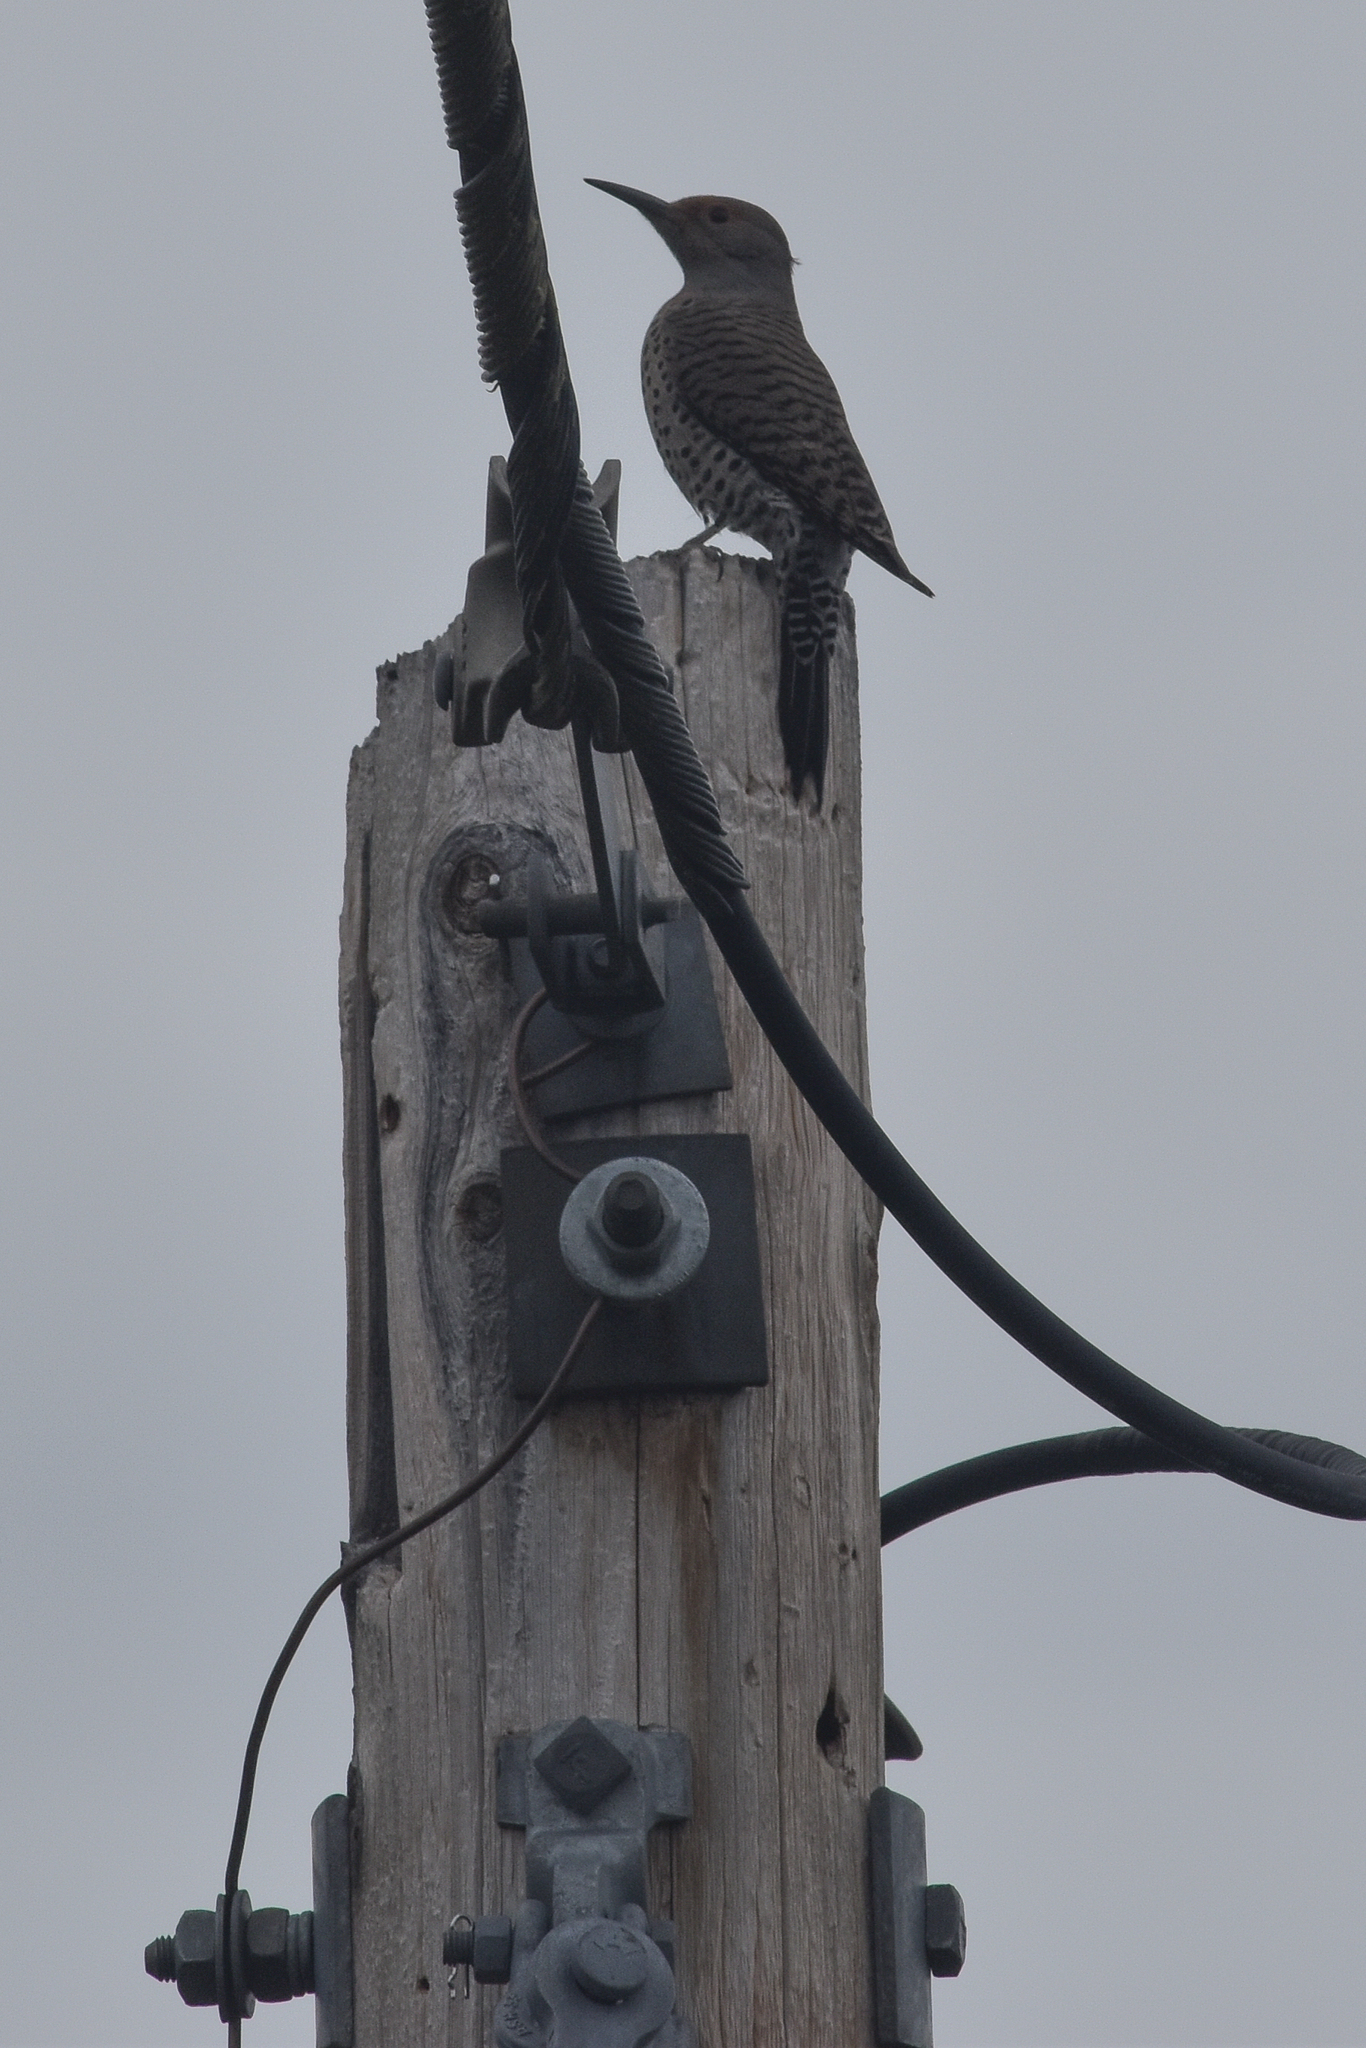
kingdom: Animalia
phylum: Chordata
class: Aves
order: Piciformes
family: Picidae
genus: Colaptes
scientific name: Colaptes auratus
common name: Northern flicker
